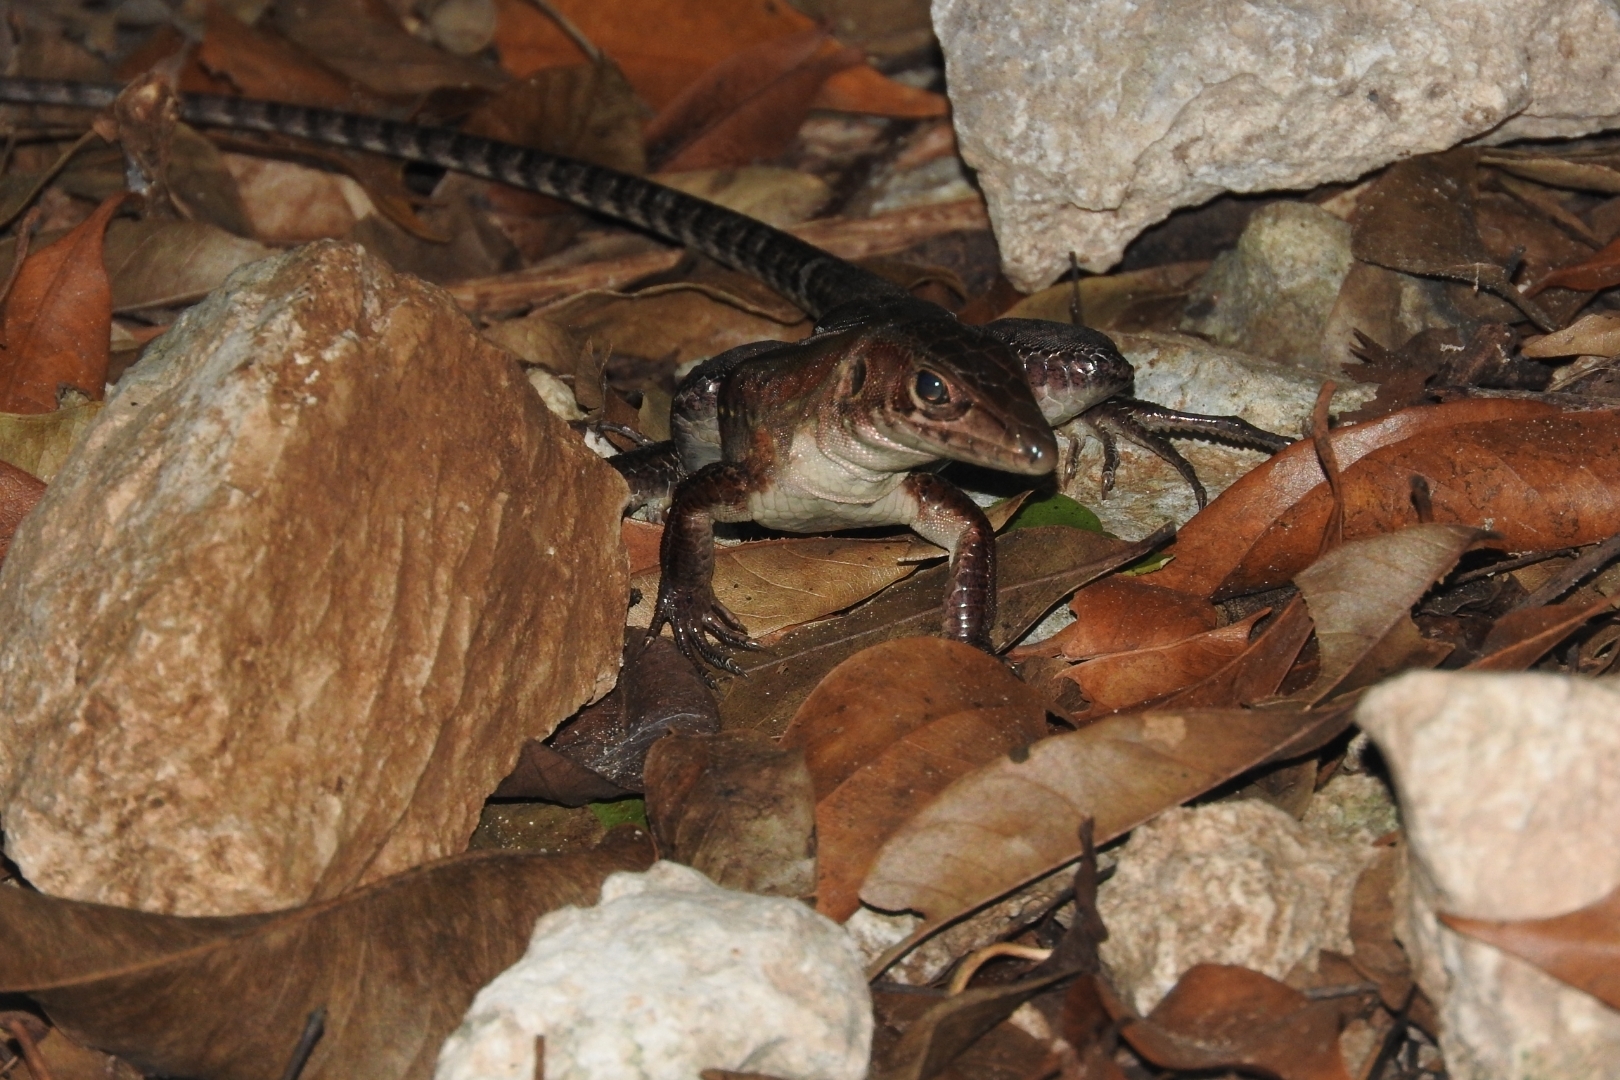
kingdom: Animalia
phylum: Chordata
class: Squamata
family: Teiidae
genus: Holcosus
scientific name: Holcosus undulatus
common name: Rainbow ameiva
